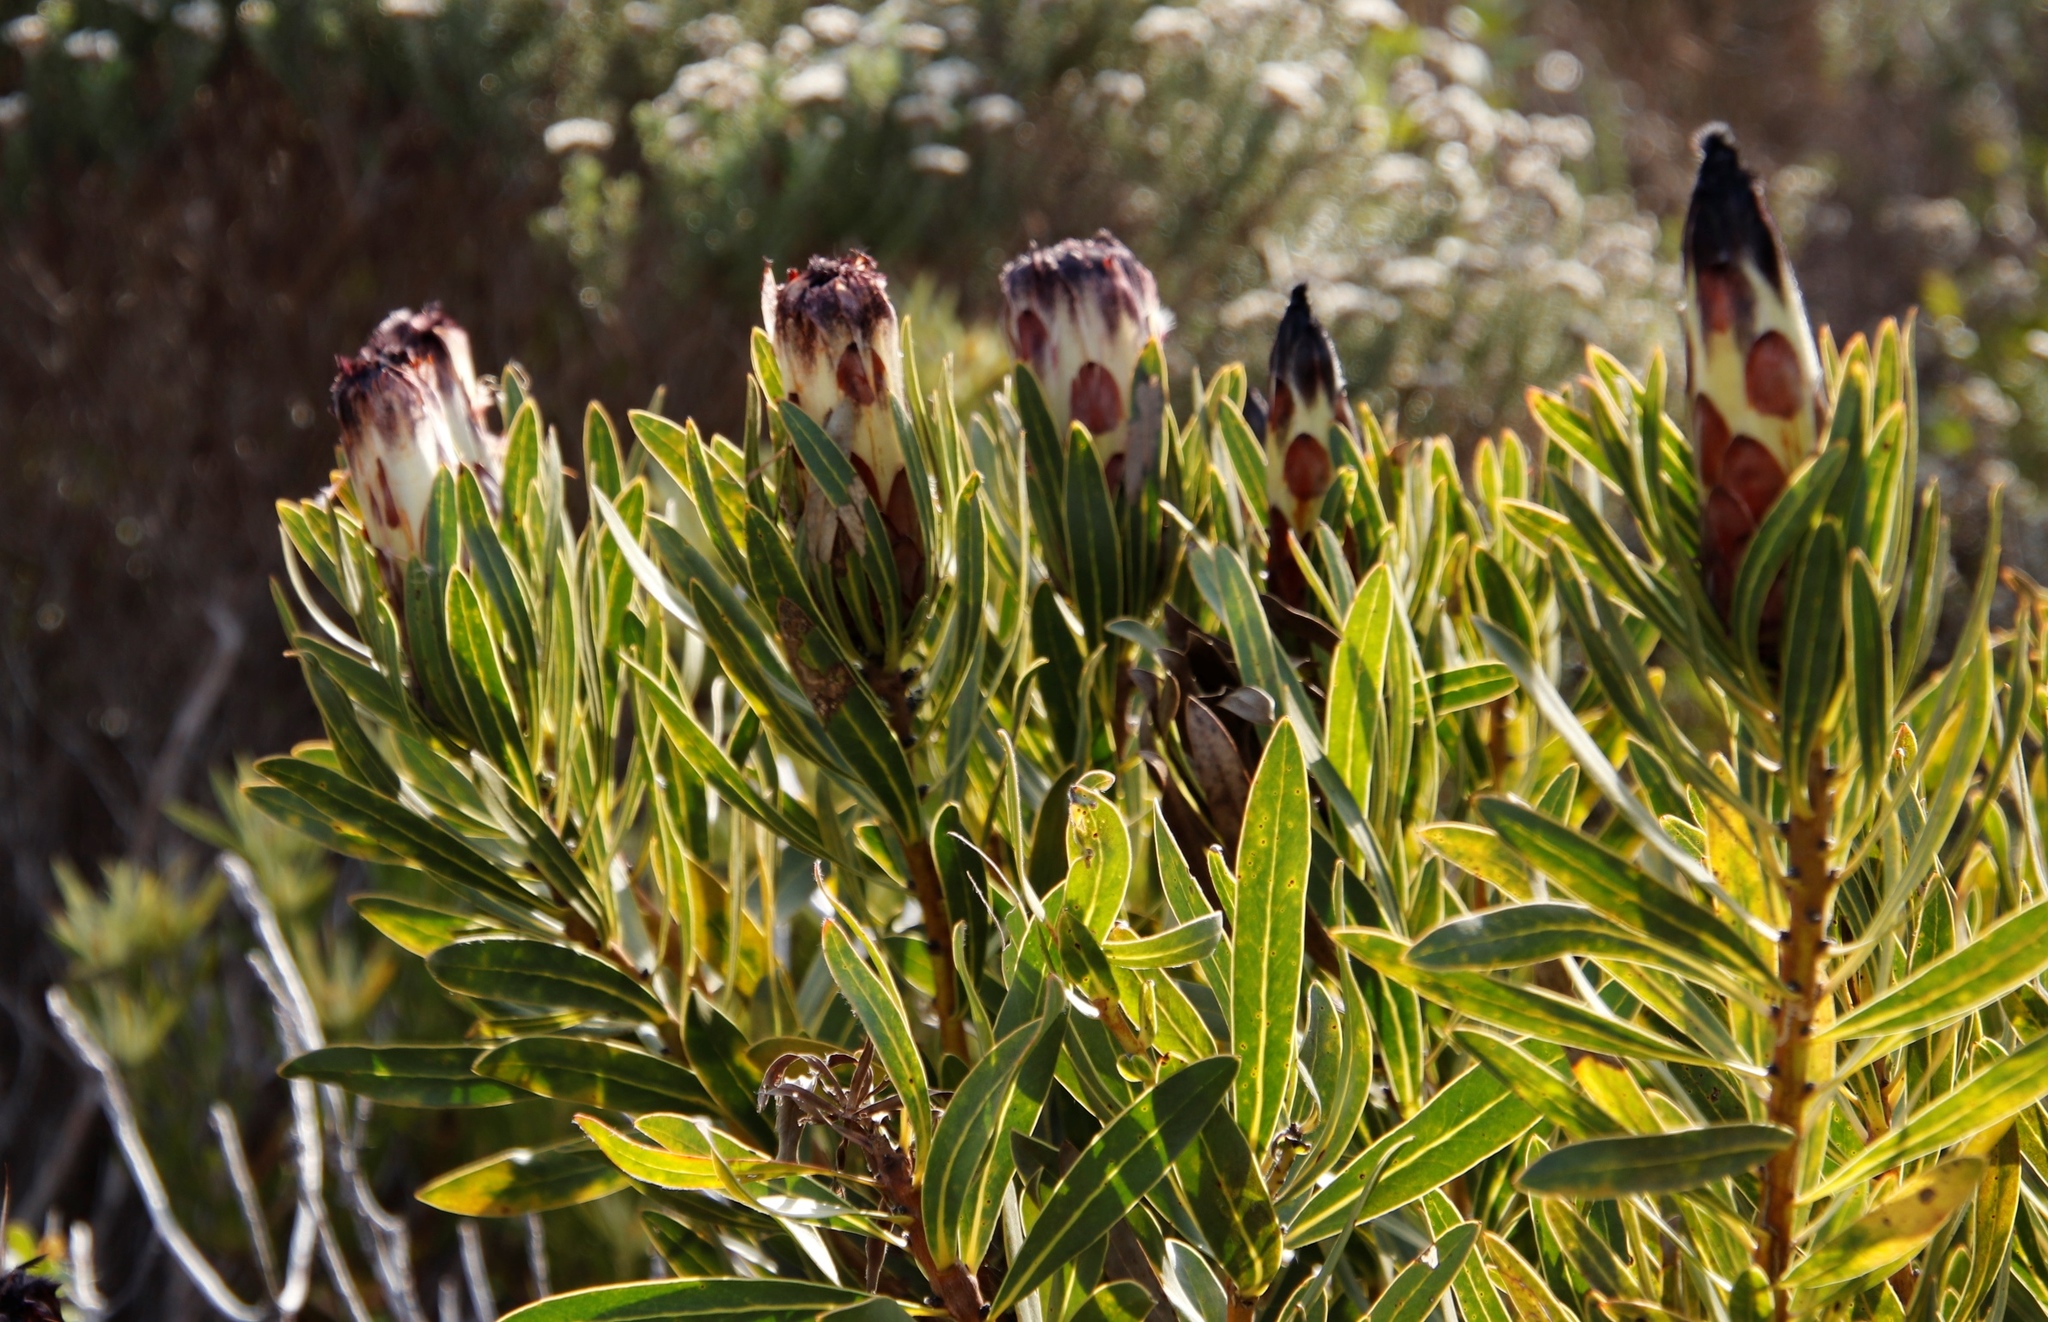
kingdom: Plantae
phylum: Tracheophyta
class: Magnoliopsida
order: Proteales
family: Proteaceae
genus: Protea
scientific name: Protea lepidocarpodendron
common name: Black-bearded protea
